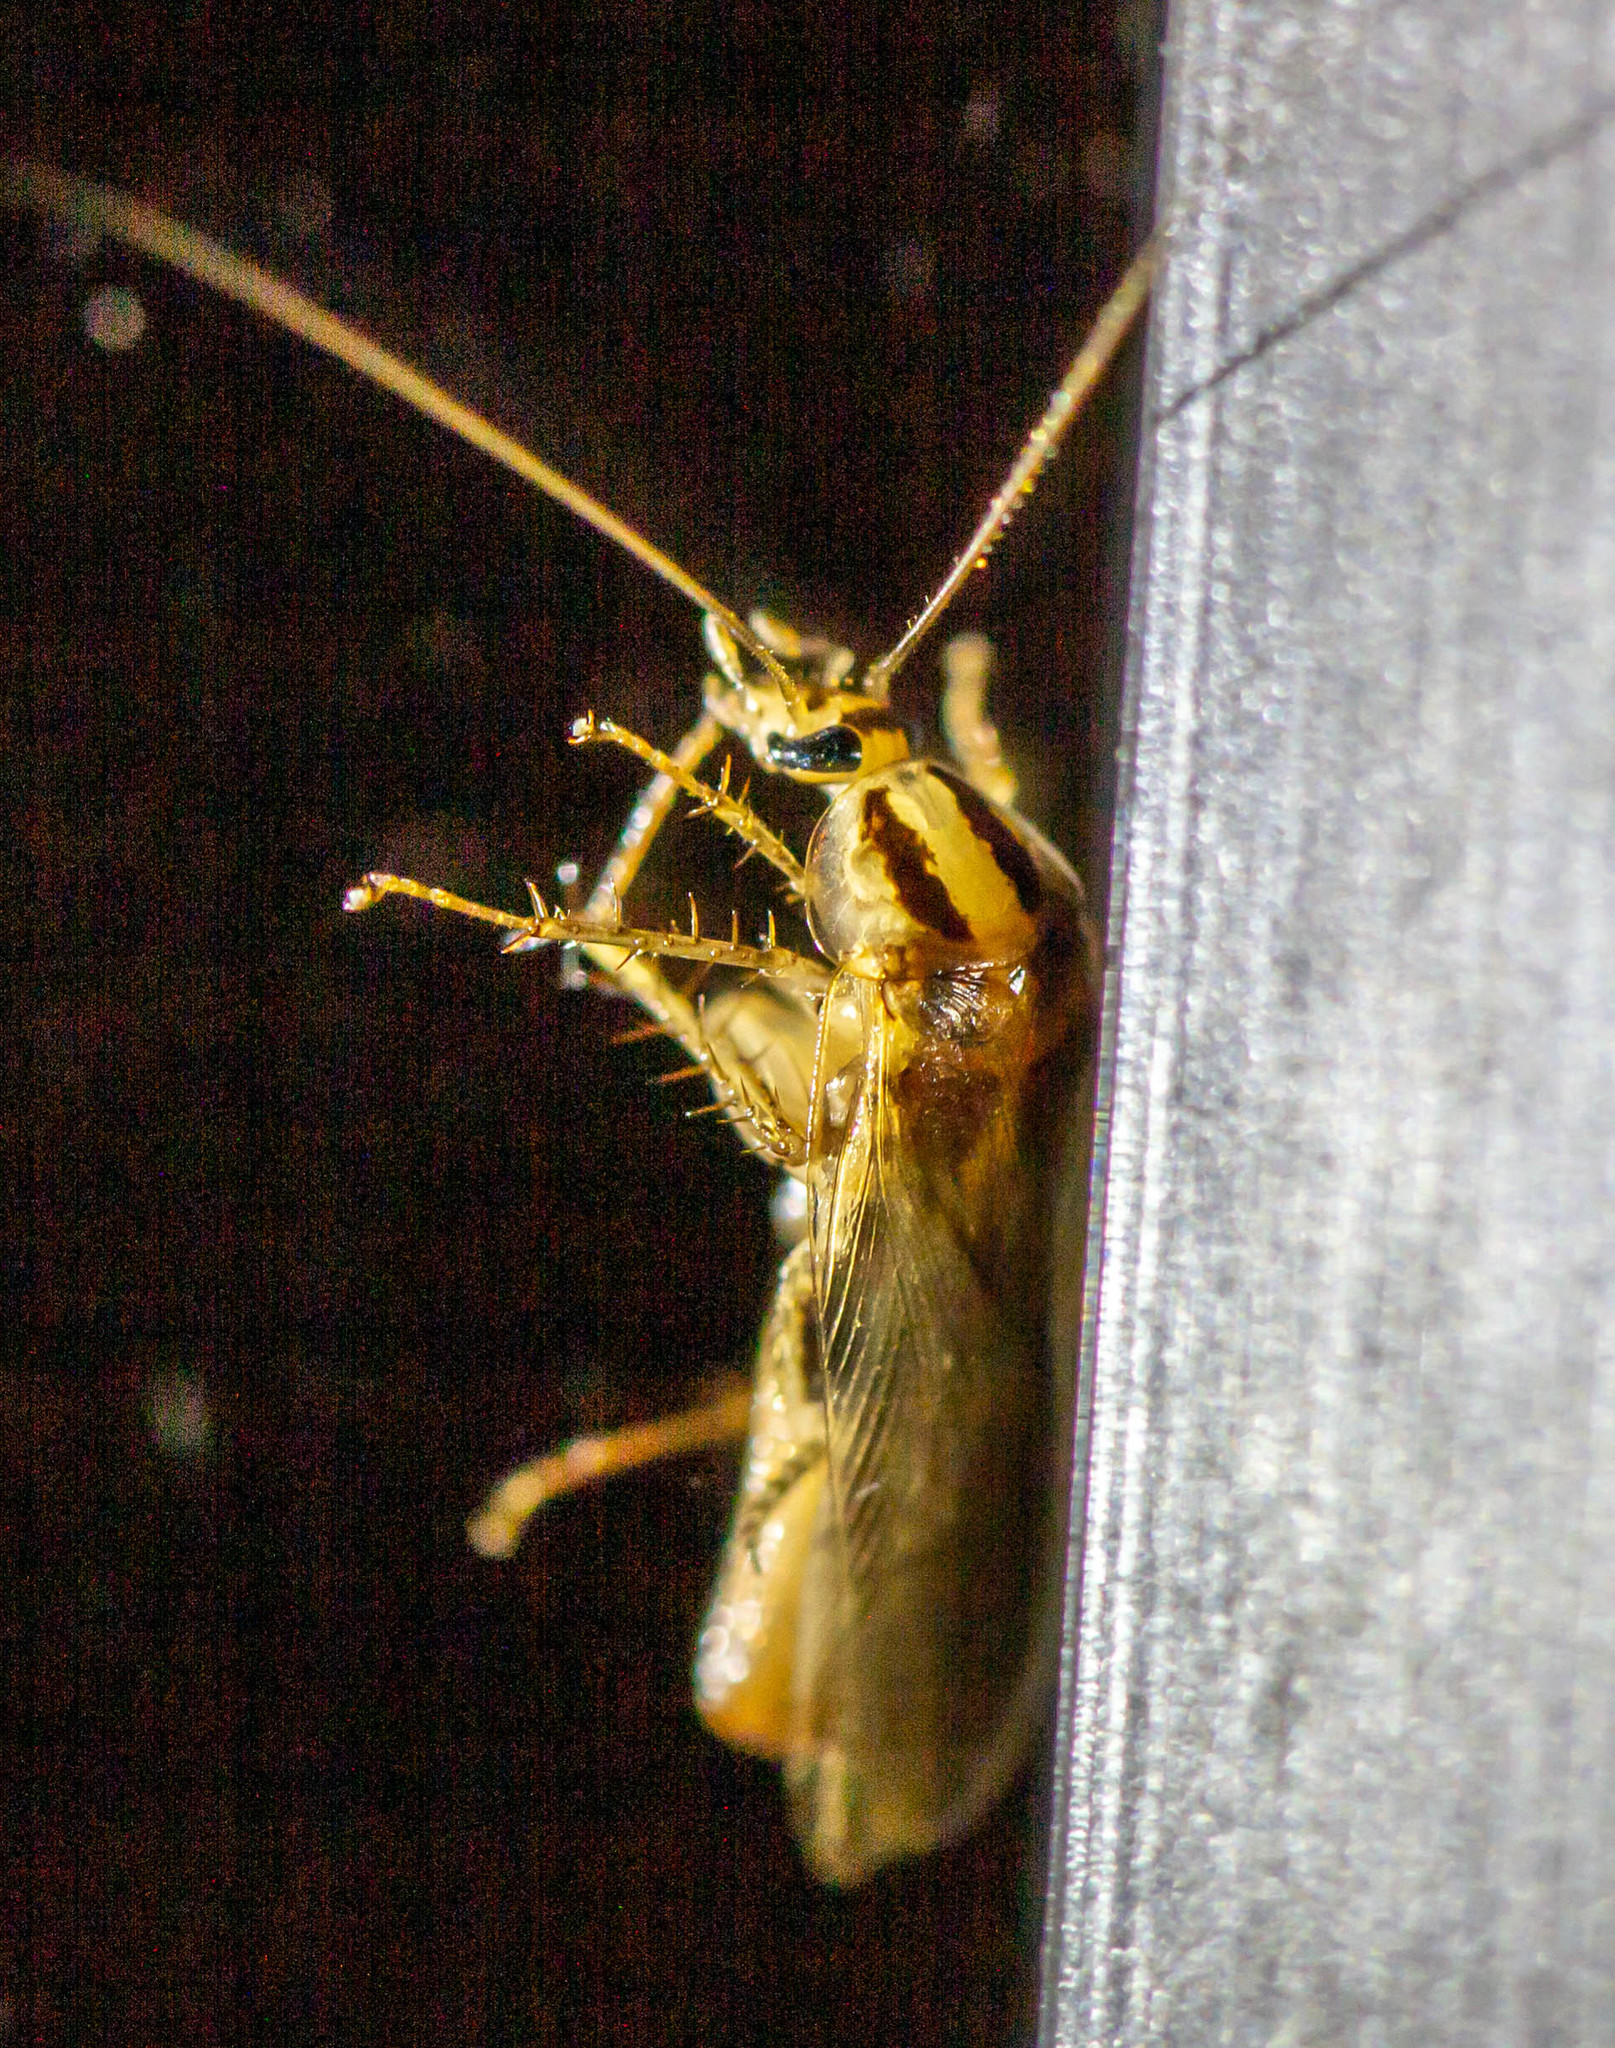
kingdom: Animalia
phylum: Arthropoda
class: Insecta
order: Blattodea
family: Ectobiidae
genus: Blattella
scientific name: Blattella asahinai
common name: Asian cockroach
